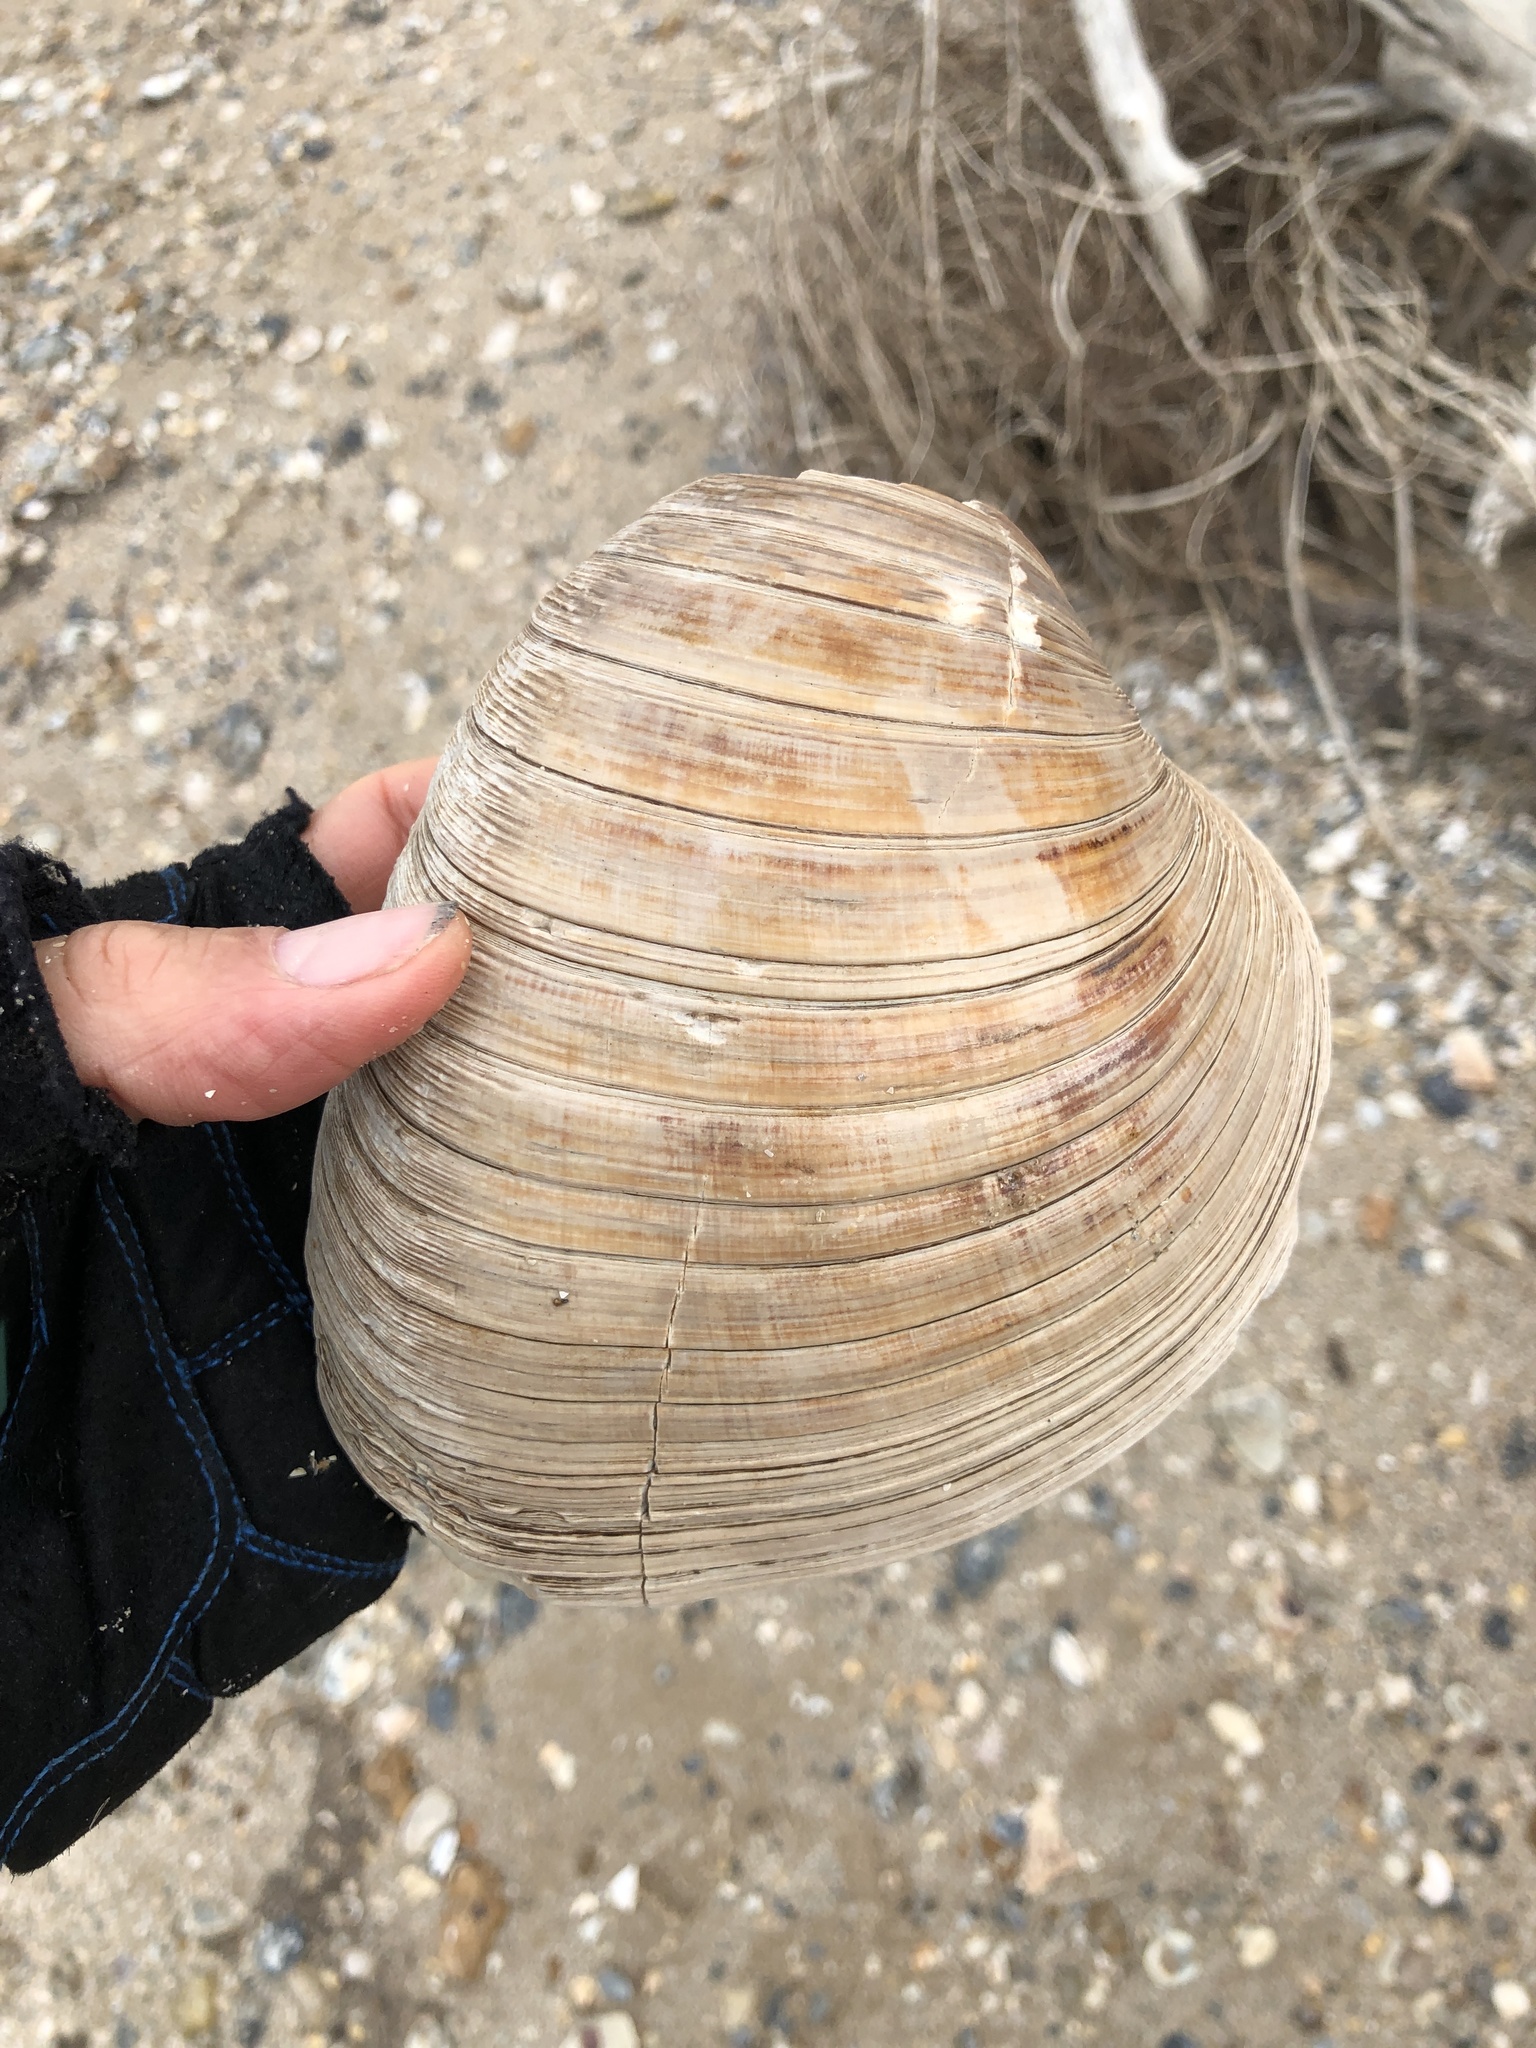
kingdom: Animalia
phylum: Mollusca
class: Bivalvia
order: Venerida
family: Veneridae
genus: Mercenaria
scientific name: Mercenaria texana
